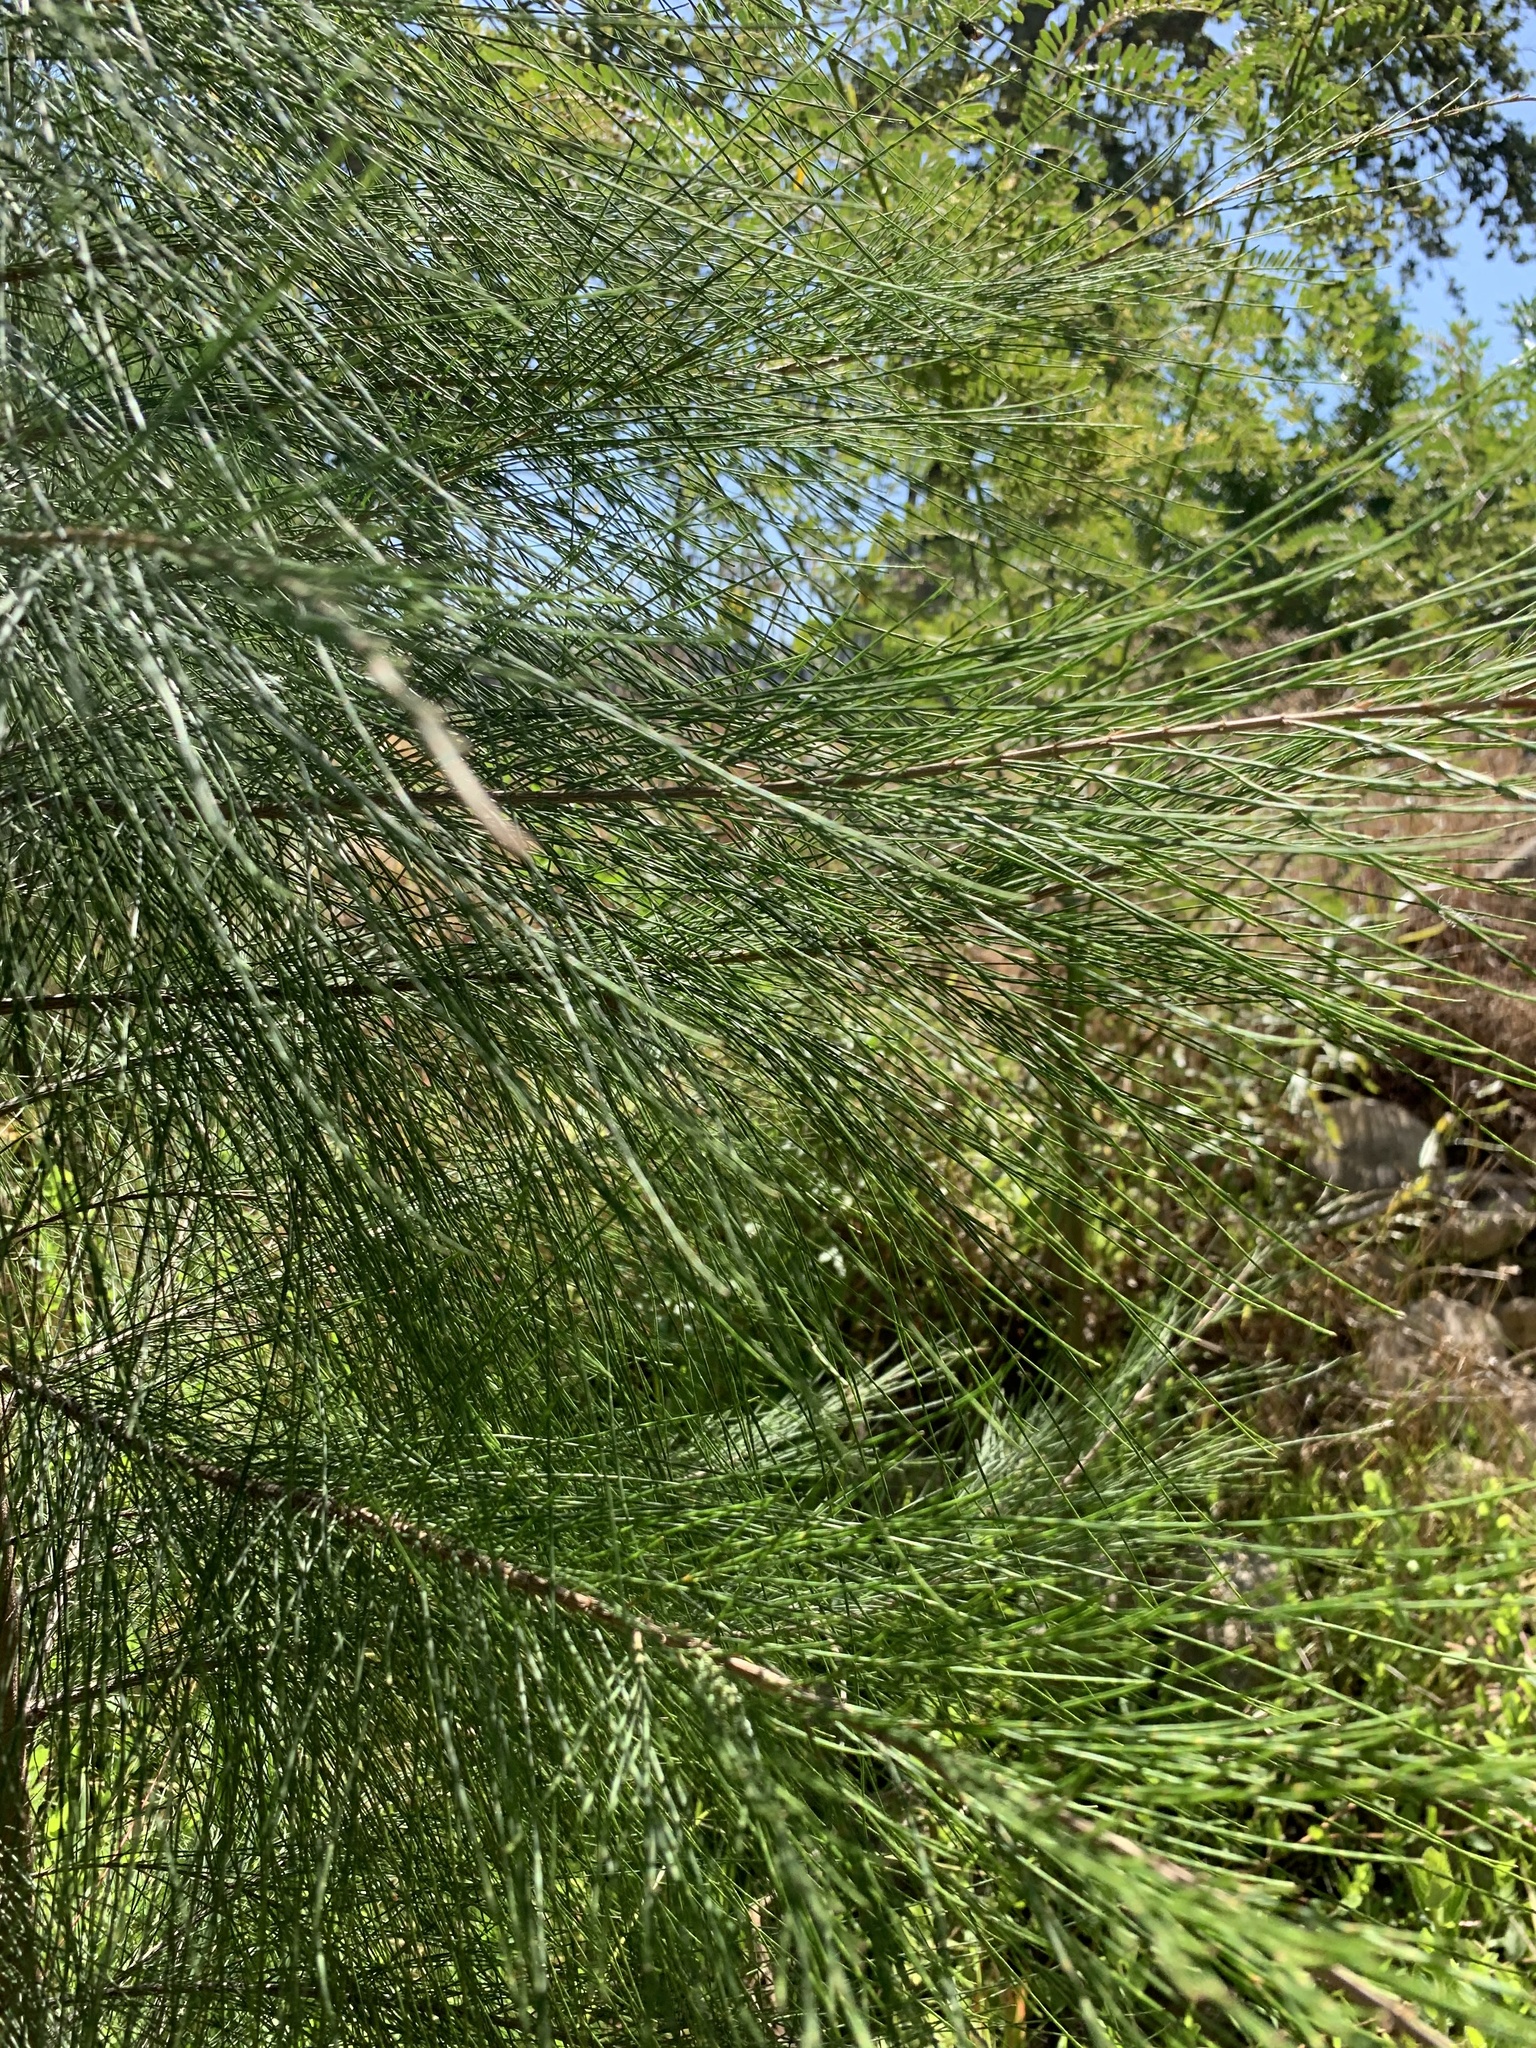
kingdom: Plantae
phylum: Tracheophyta
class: Magnoliopsida
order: Fagales
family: Casuarinaceae
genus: Casuarina
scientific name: Casuarina cunninghamiana
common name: River sheoak
